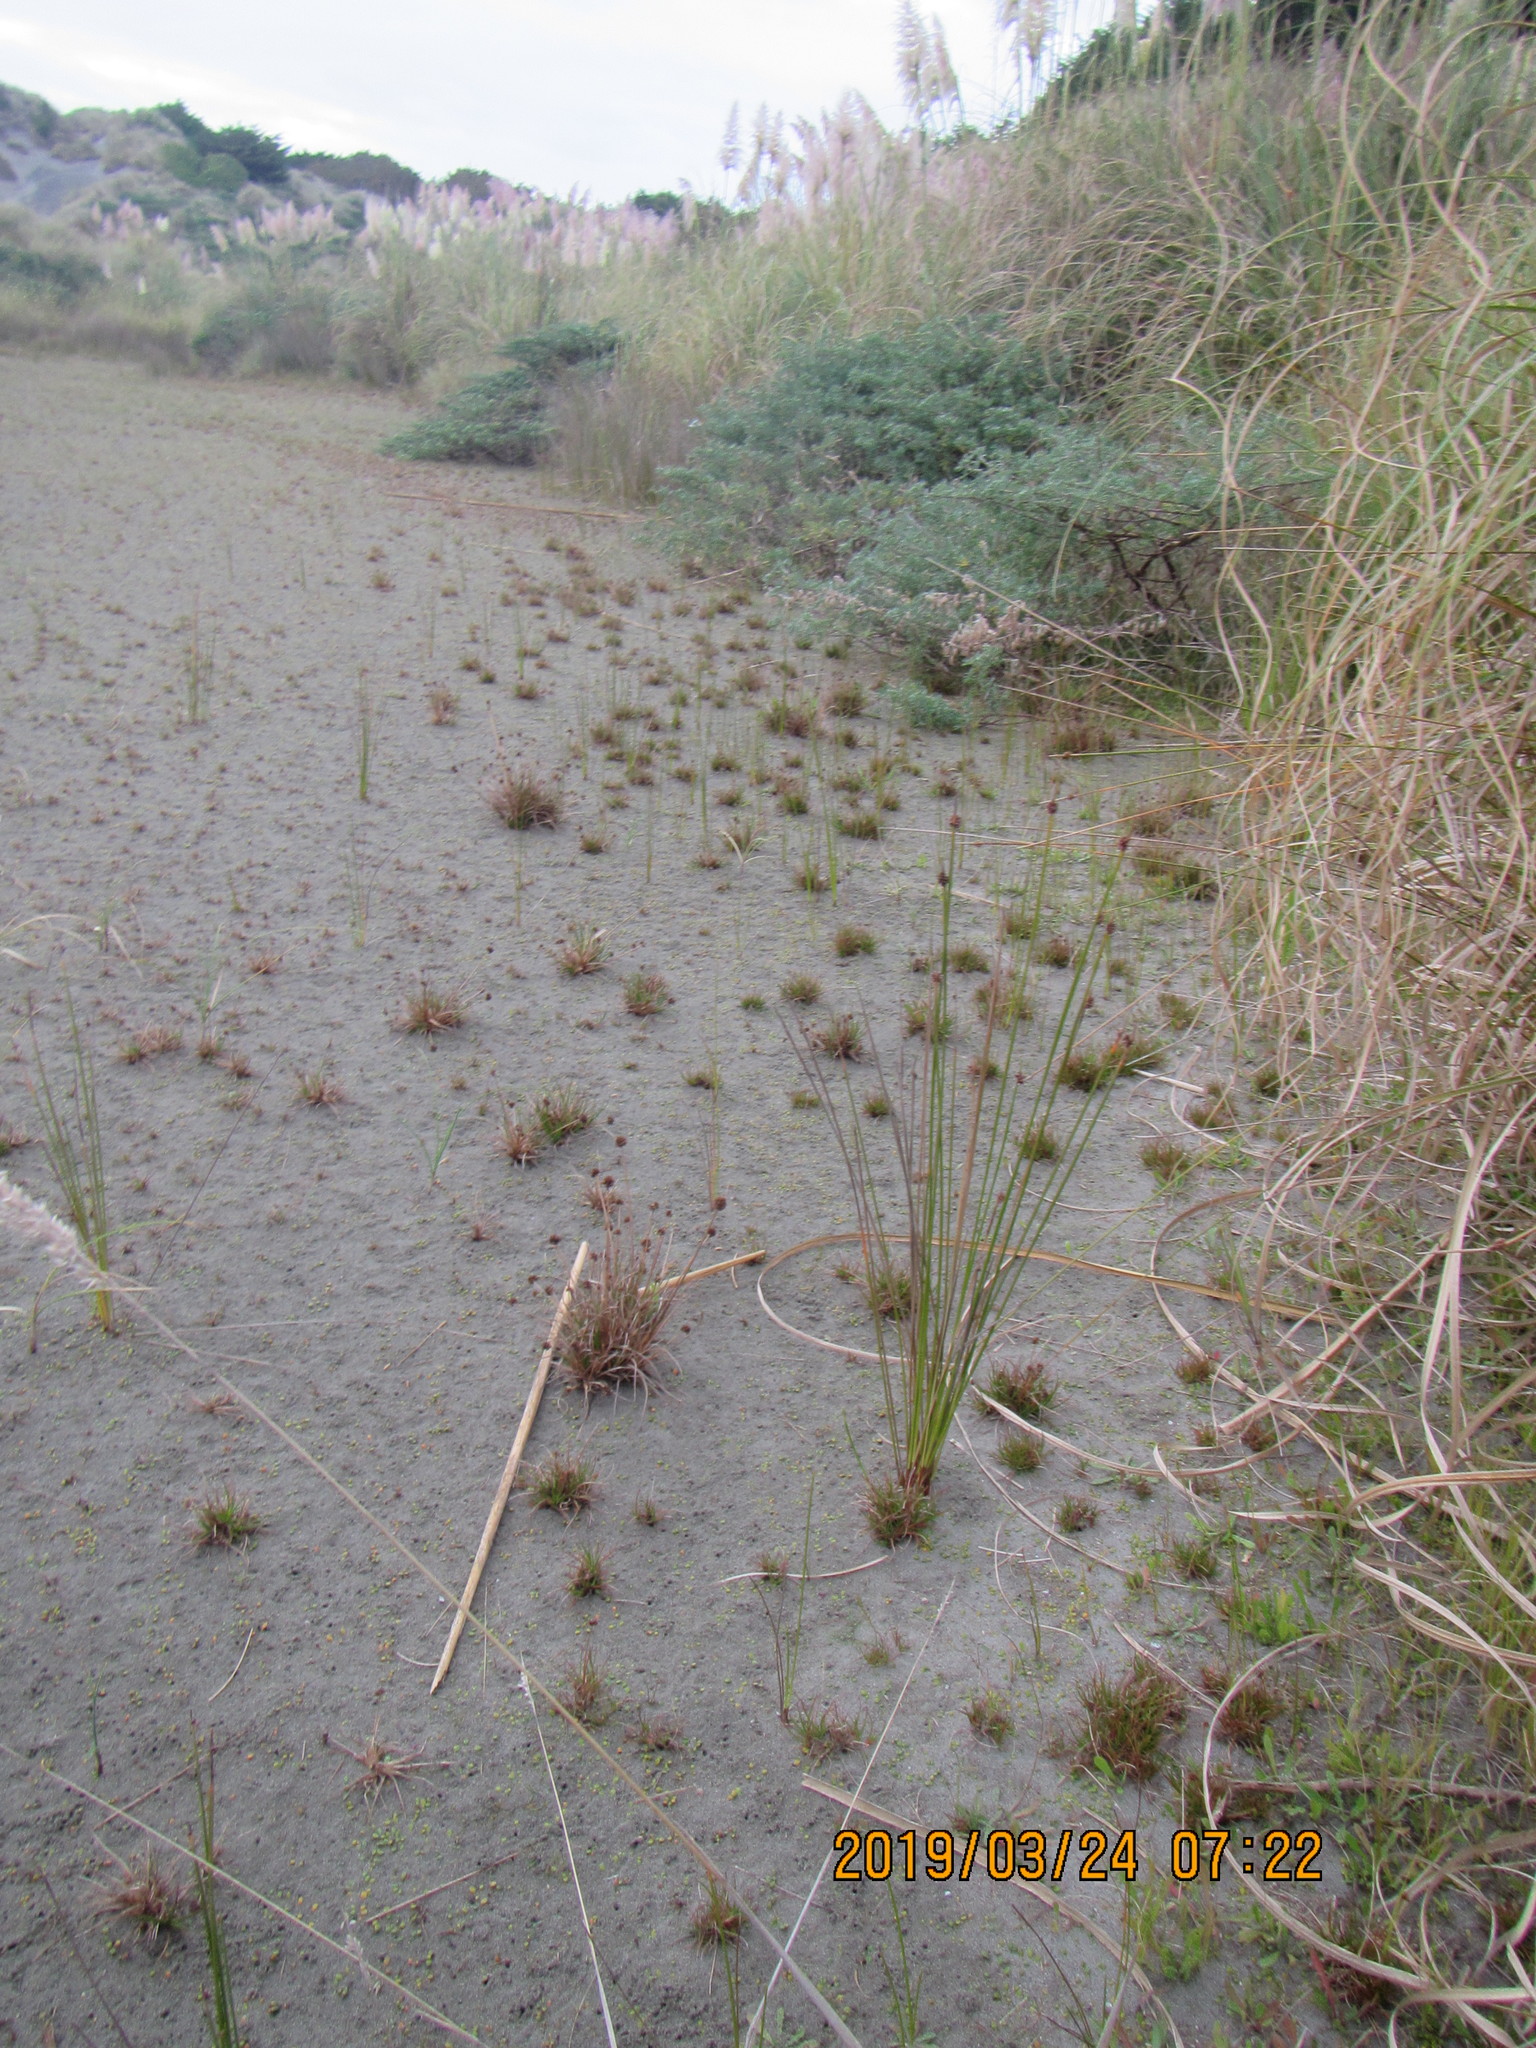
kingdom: Plantae
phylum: Tracheophyta
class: Liliopsida
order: Poales
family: Juncaceae
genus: Juncus
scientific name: Juncus caespiticius
